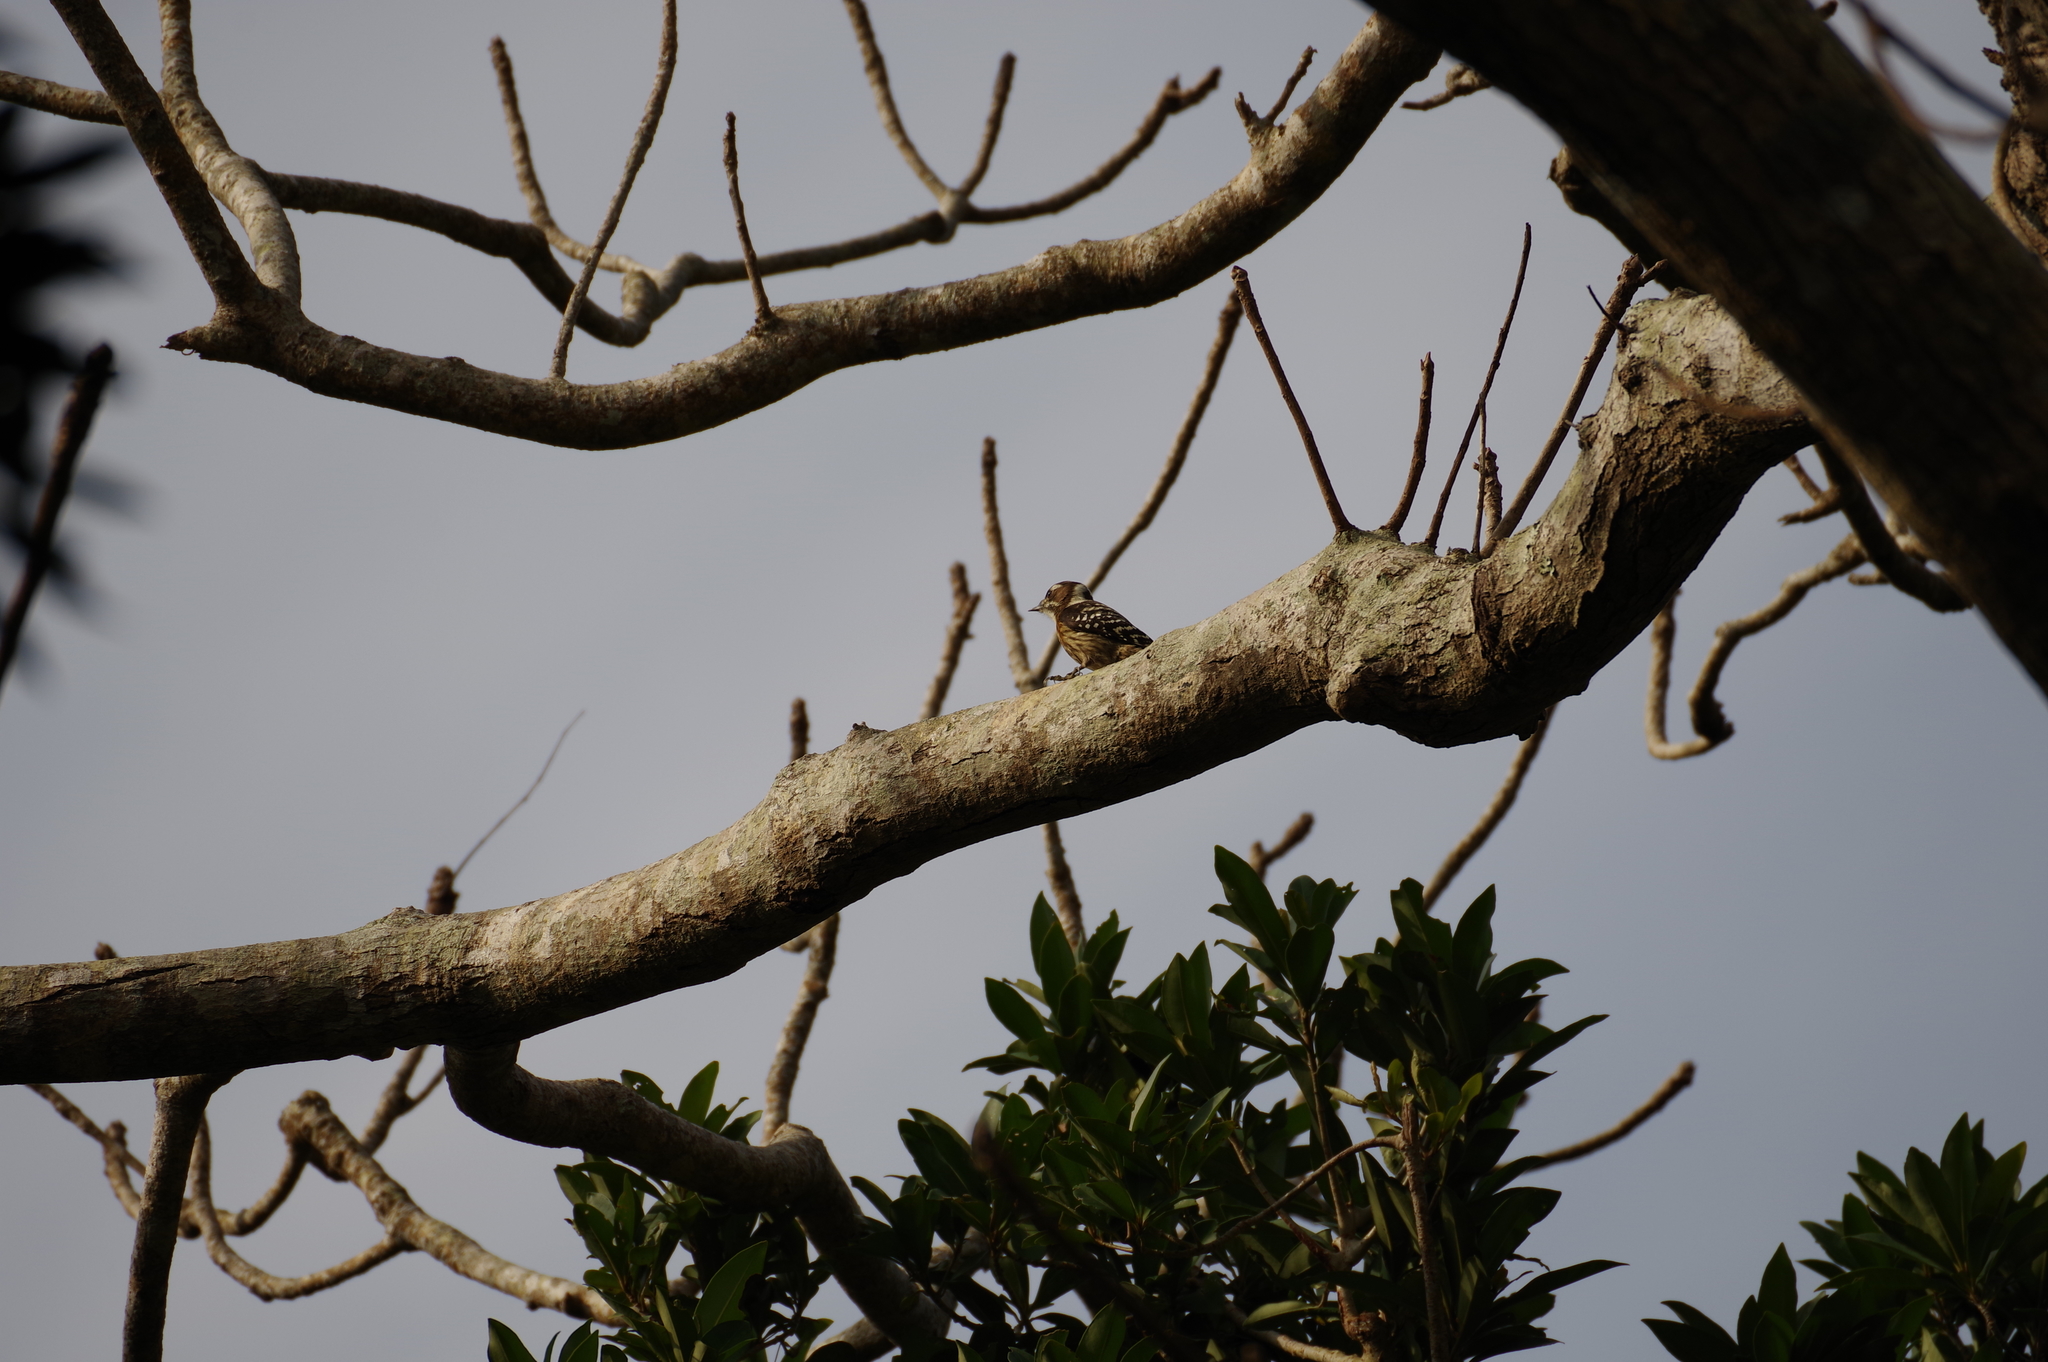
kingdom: Animalia
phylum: Chordata
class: Aves
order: Piciformes
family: Picidae
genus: Yungipicus
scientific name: Yungipicus kizuki
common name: Japanese pygmy woodpecker
